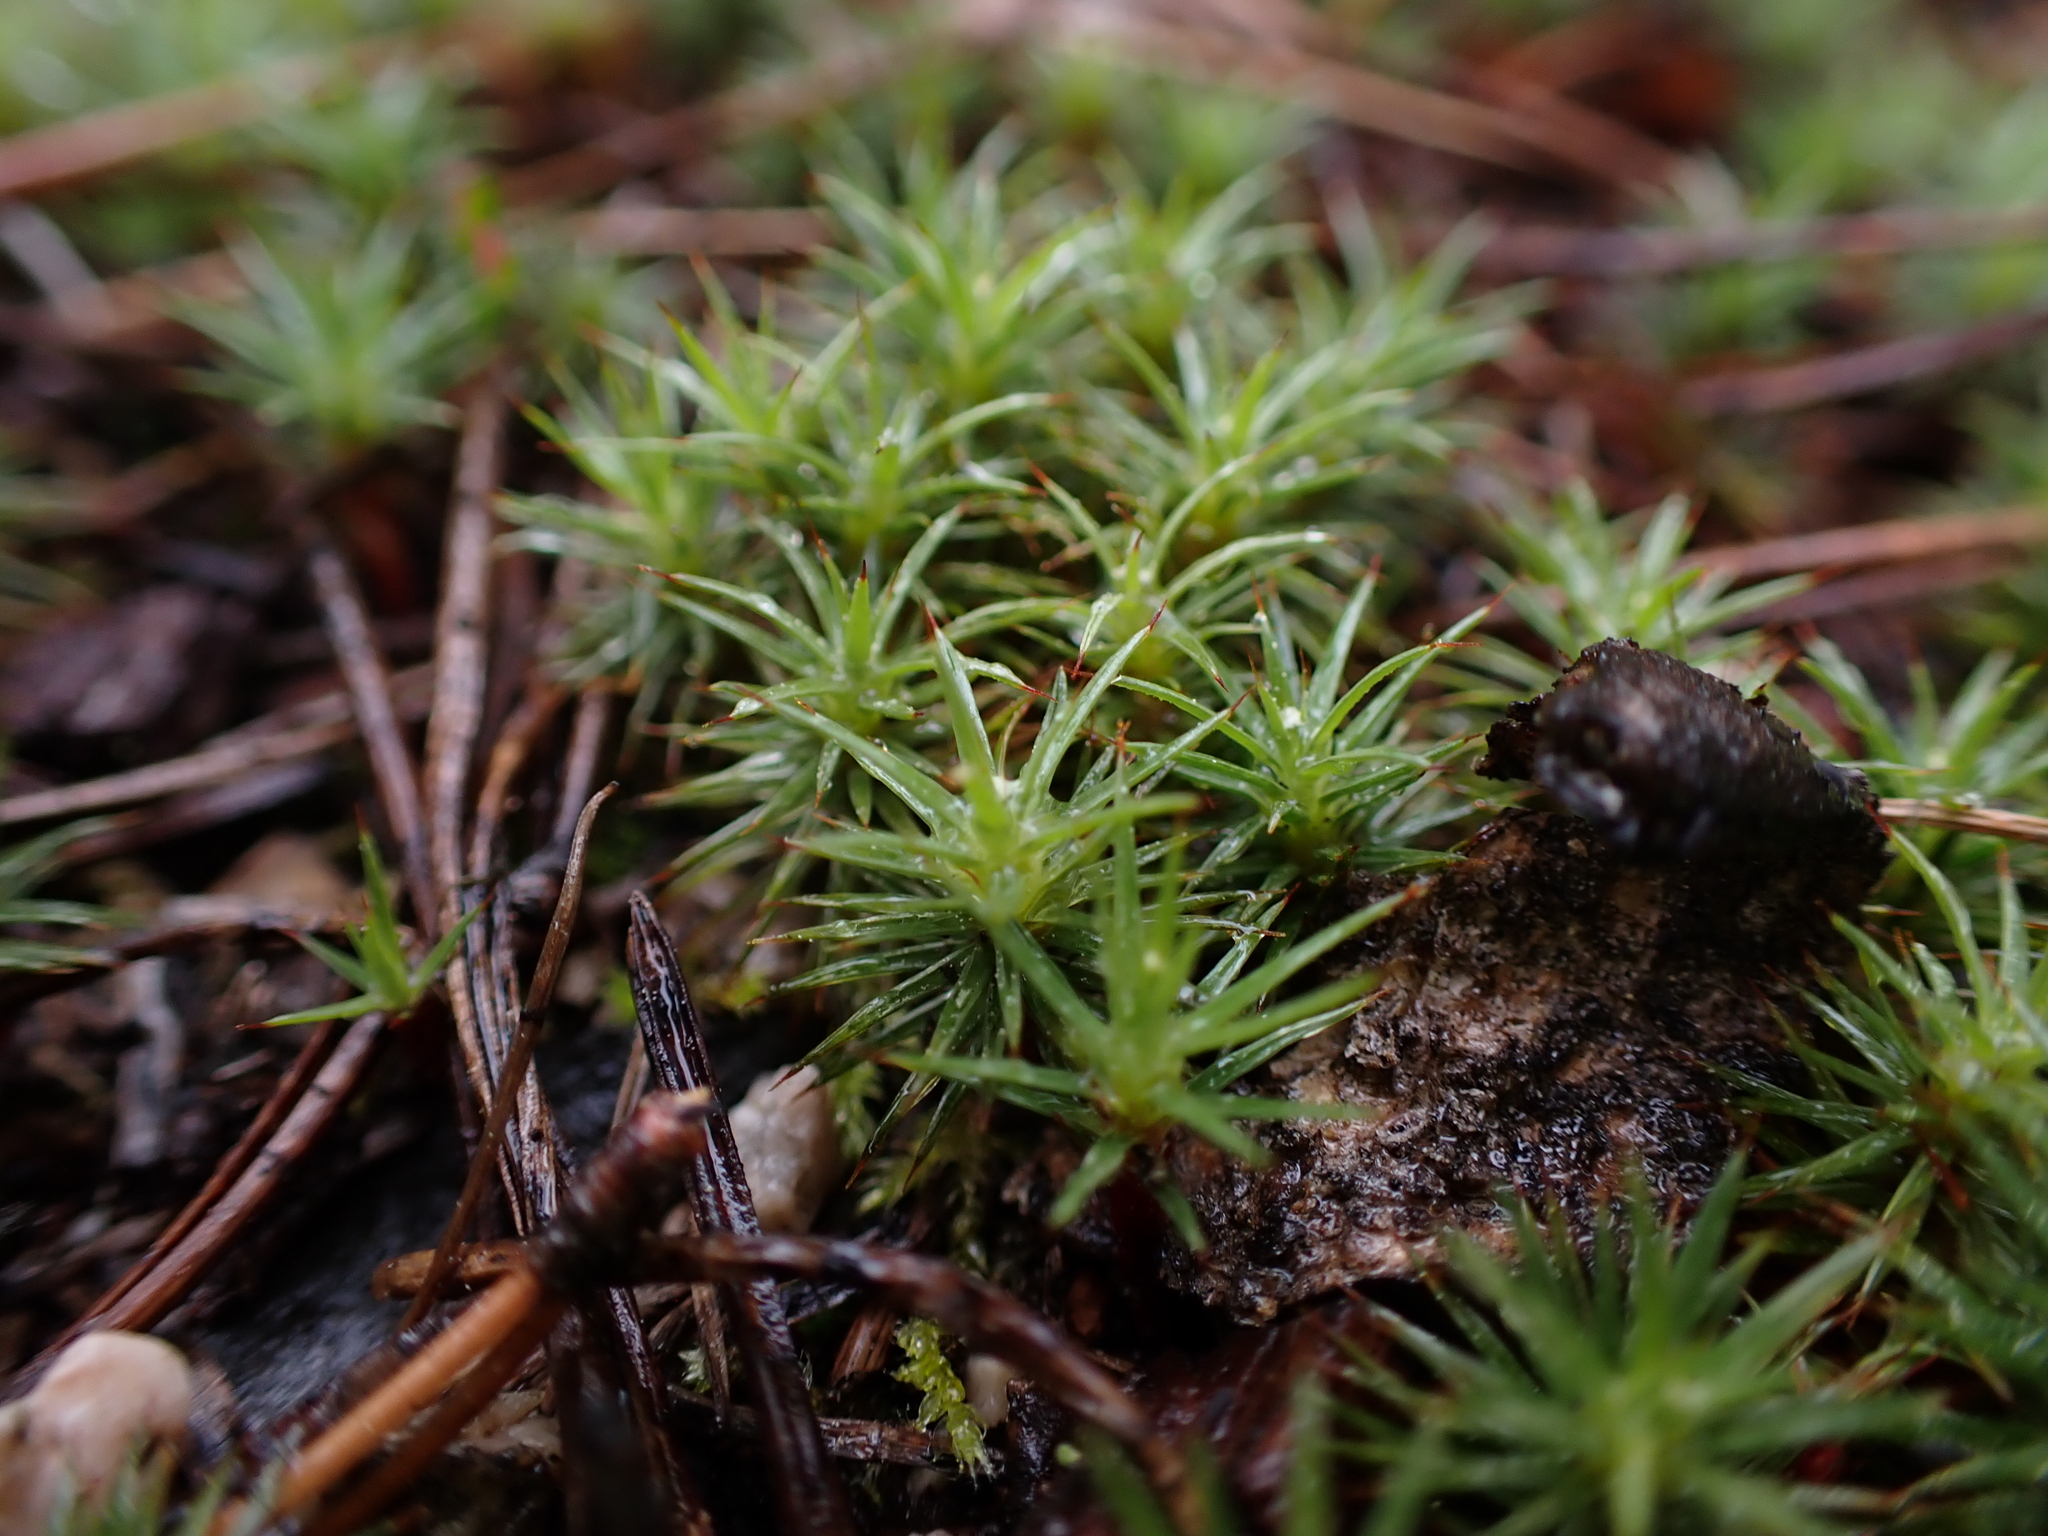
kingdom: Plantae
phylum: Bryophyta
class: Polytrichopsida
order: Polytrichales
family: Polytrichaceae
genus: Polytrichum
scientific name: Polytrichum juniperinum
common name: Juniper haircap moss
